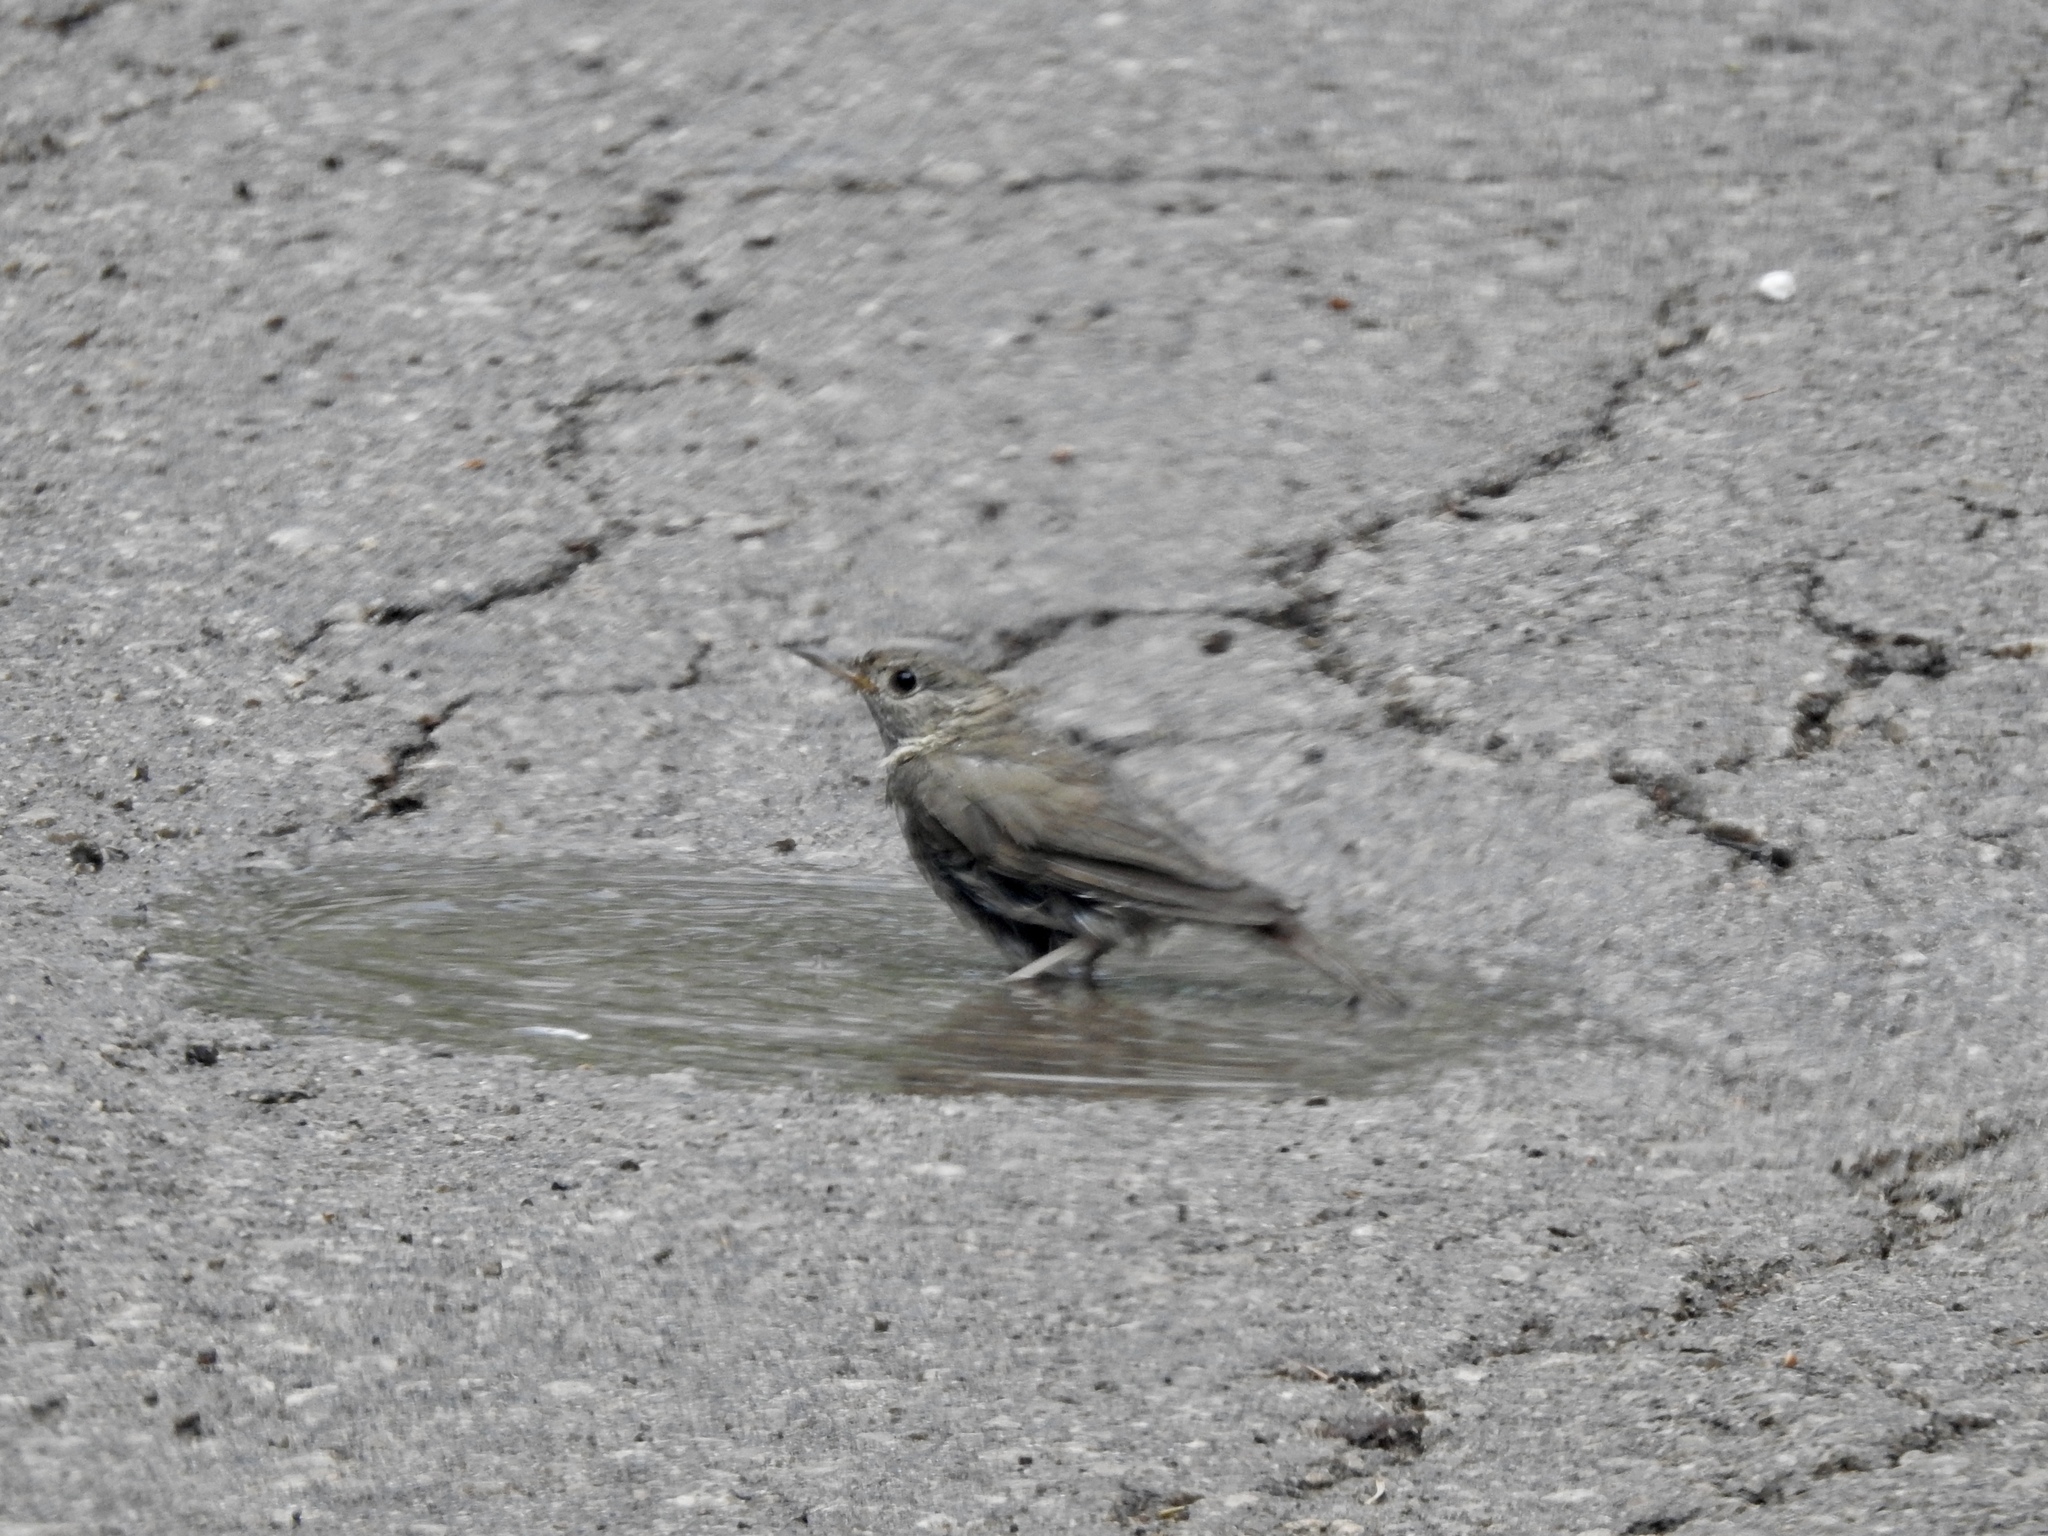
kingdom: Animalia
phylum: Chordata
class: Aves
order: Passeriformes
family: Turdidae
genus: Catharus
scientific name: Catharus guttatus
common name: Hermit thrush
